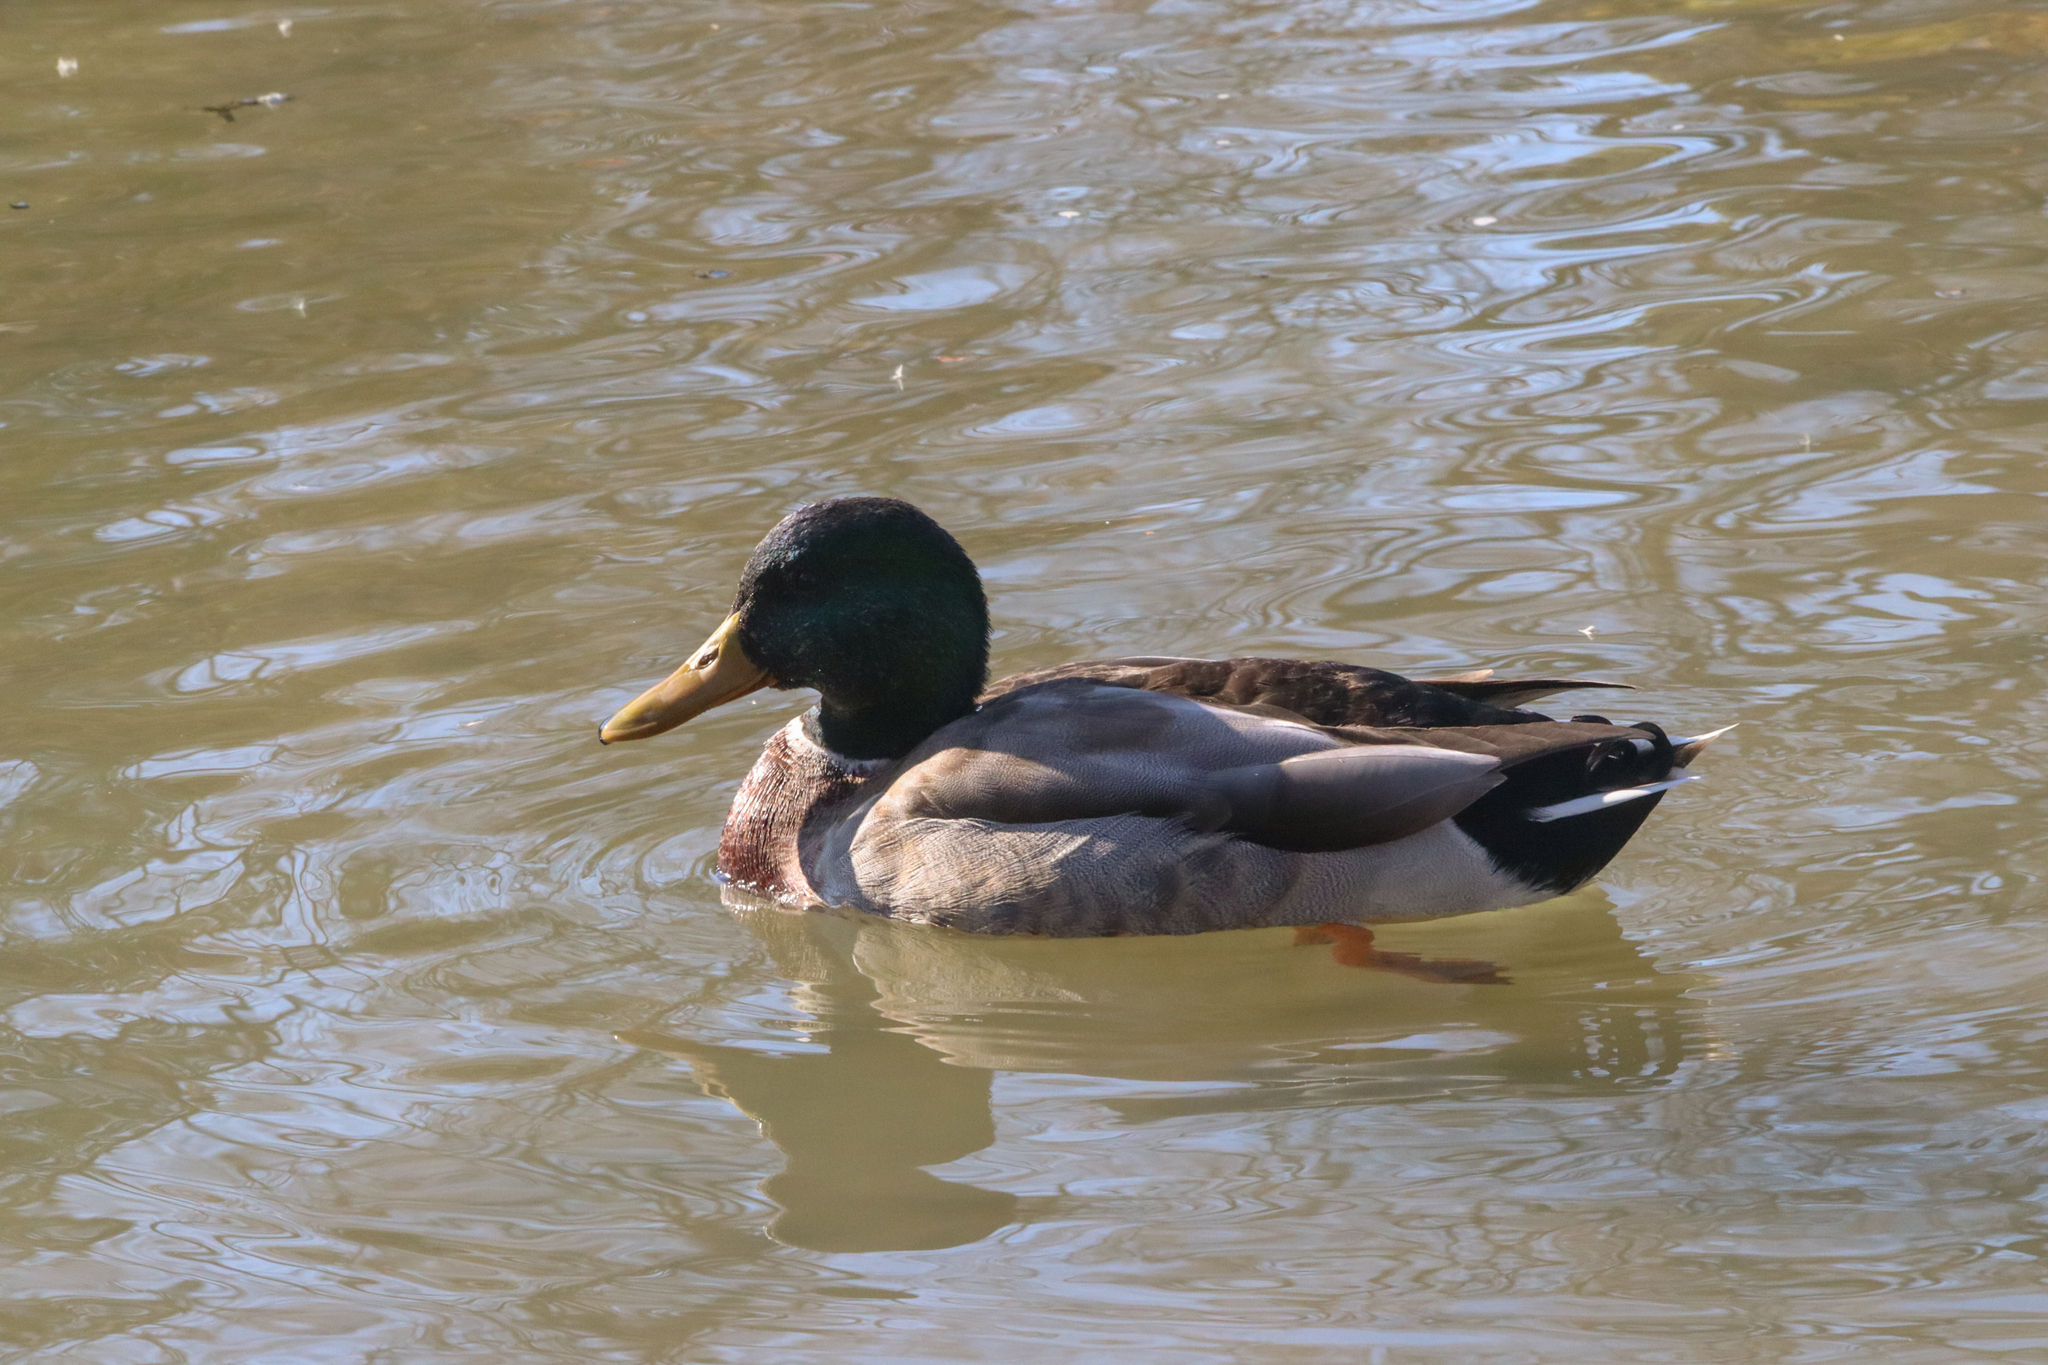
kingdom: Animalia
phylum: Chordata
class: Aves
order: Anseriformes
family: Anatidae
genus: Anas
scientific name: Anas platyrhynchos
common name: Mallard
